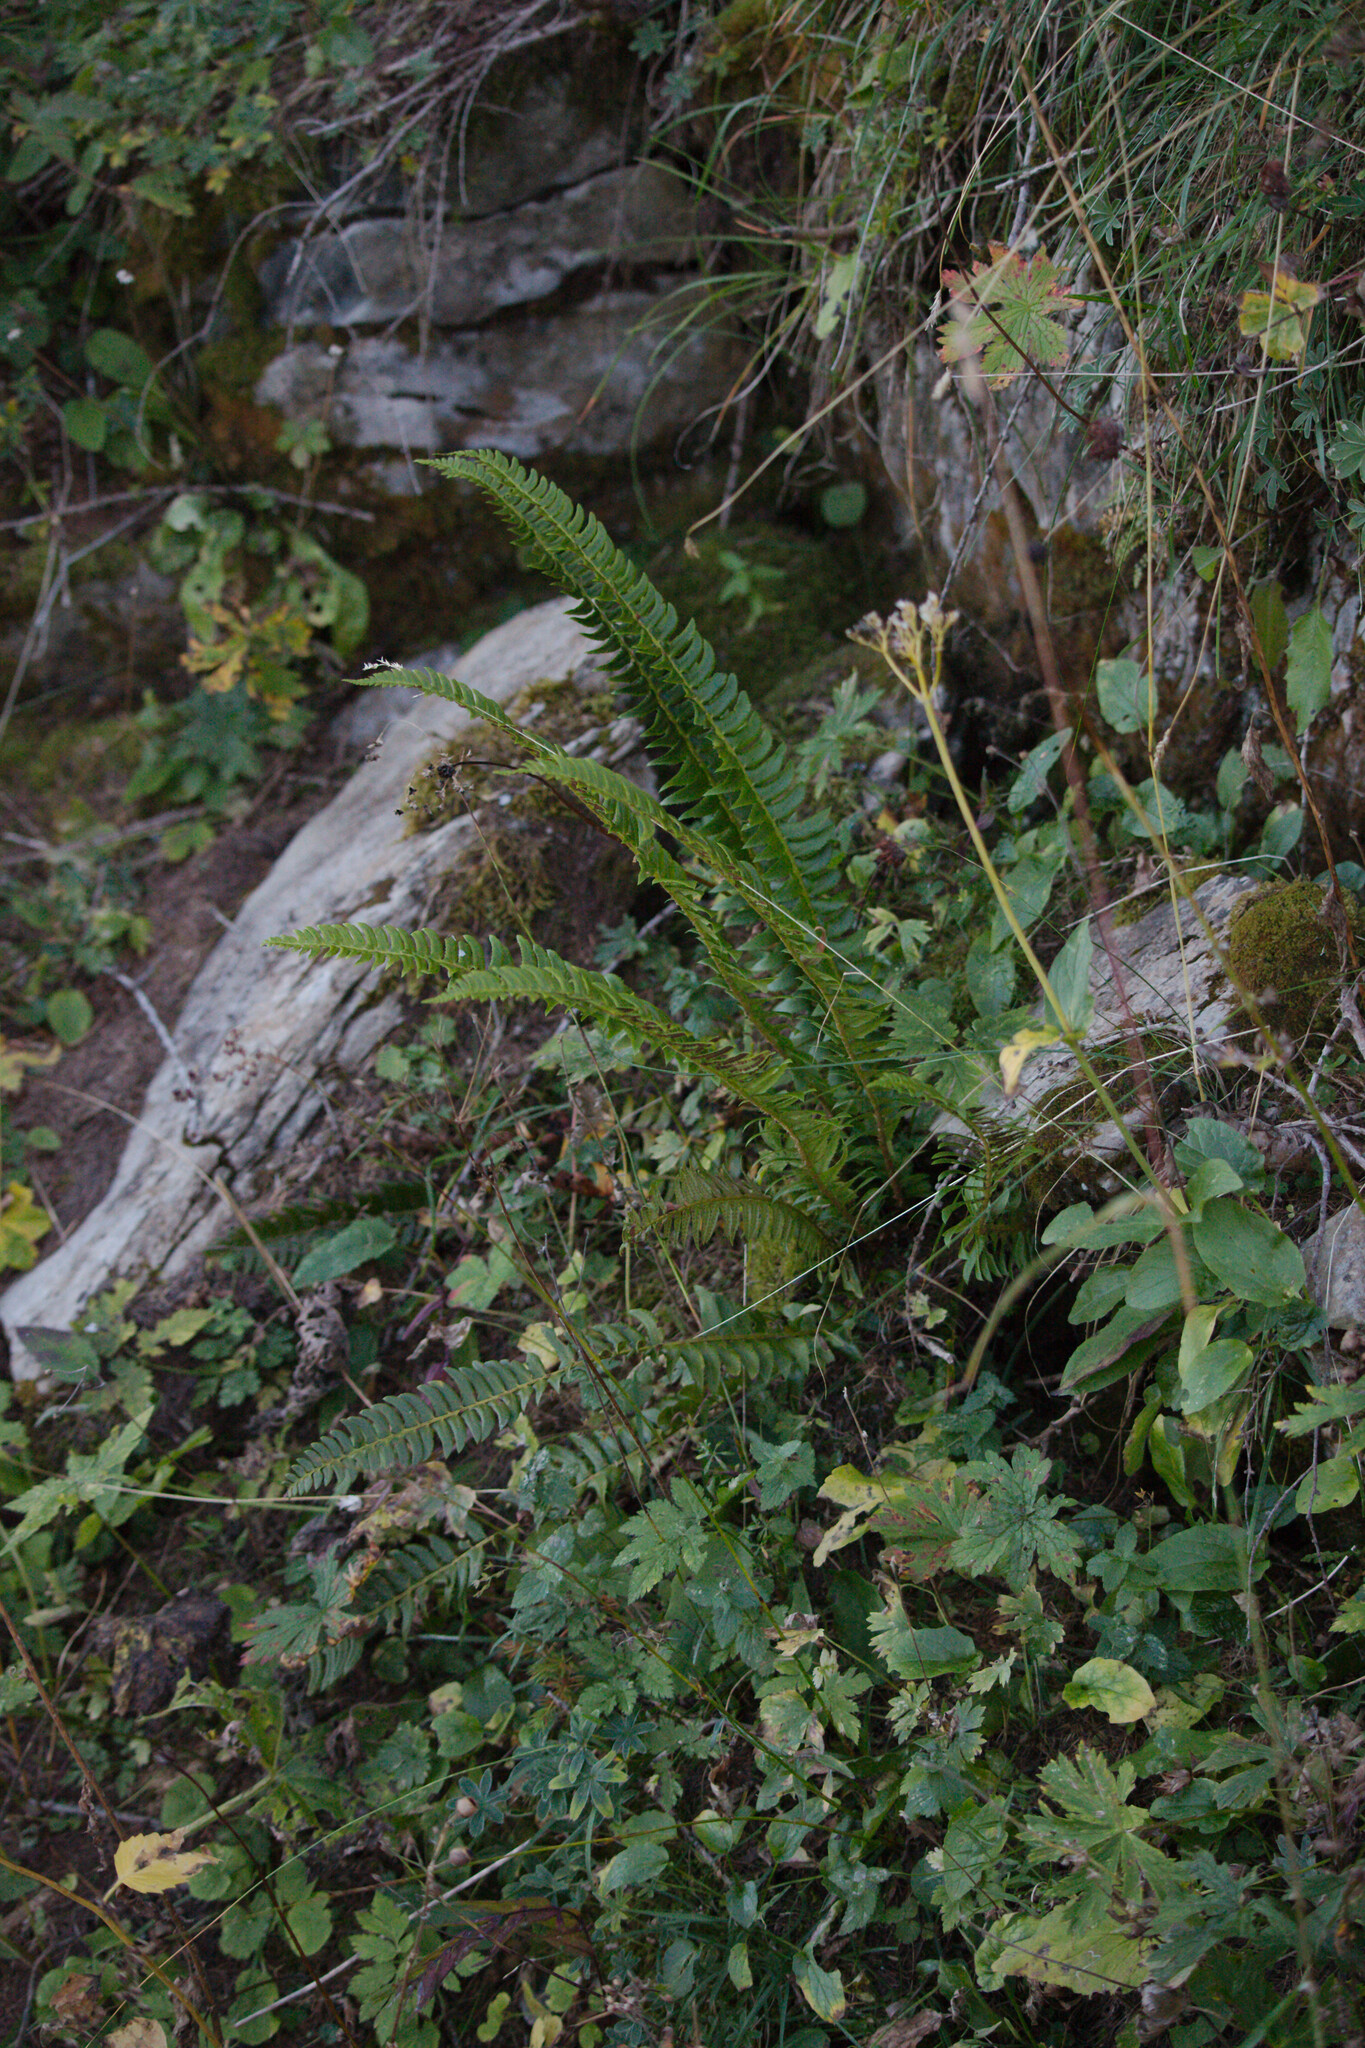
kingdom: Plantae
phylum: Tracheophyta
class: Polypodiopsida
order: Polypodiales
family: Dryopteridaceae
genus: Polystichum
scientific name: Polystichum lonchitis
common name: Holly fern
